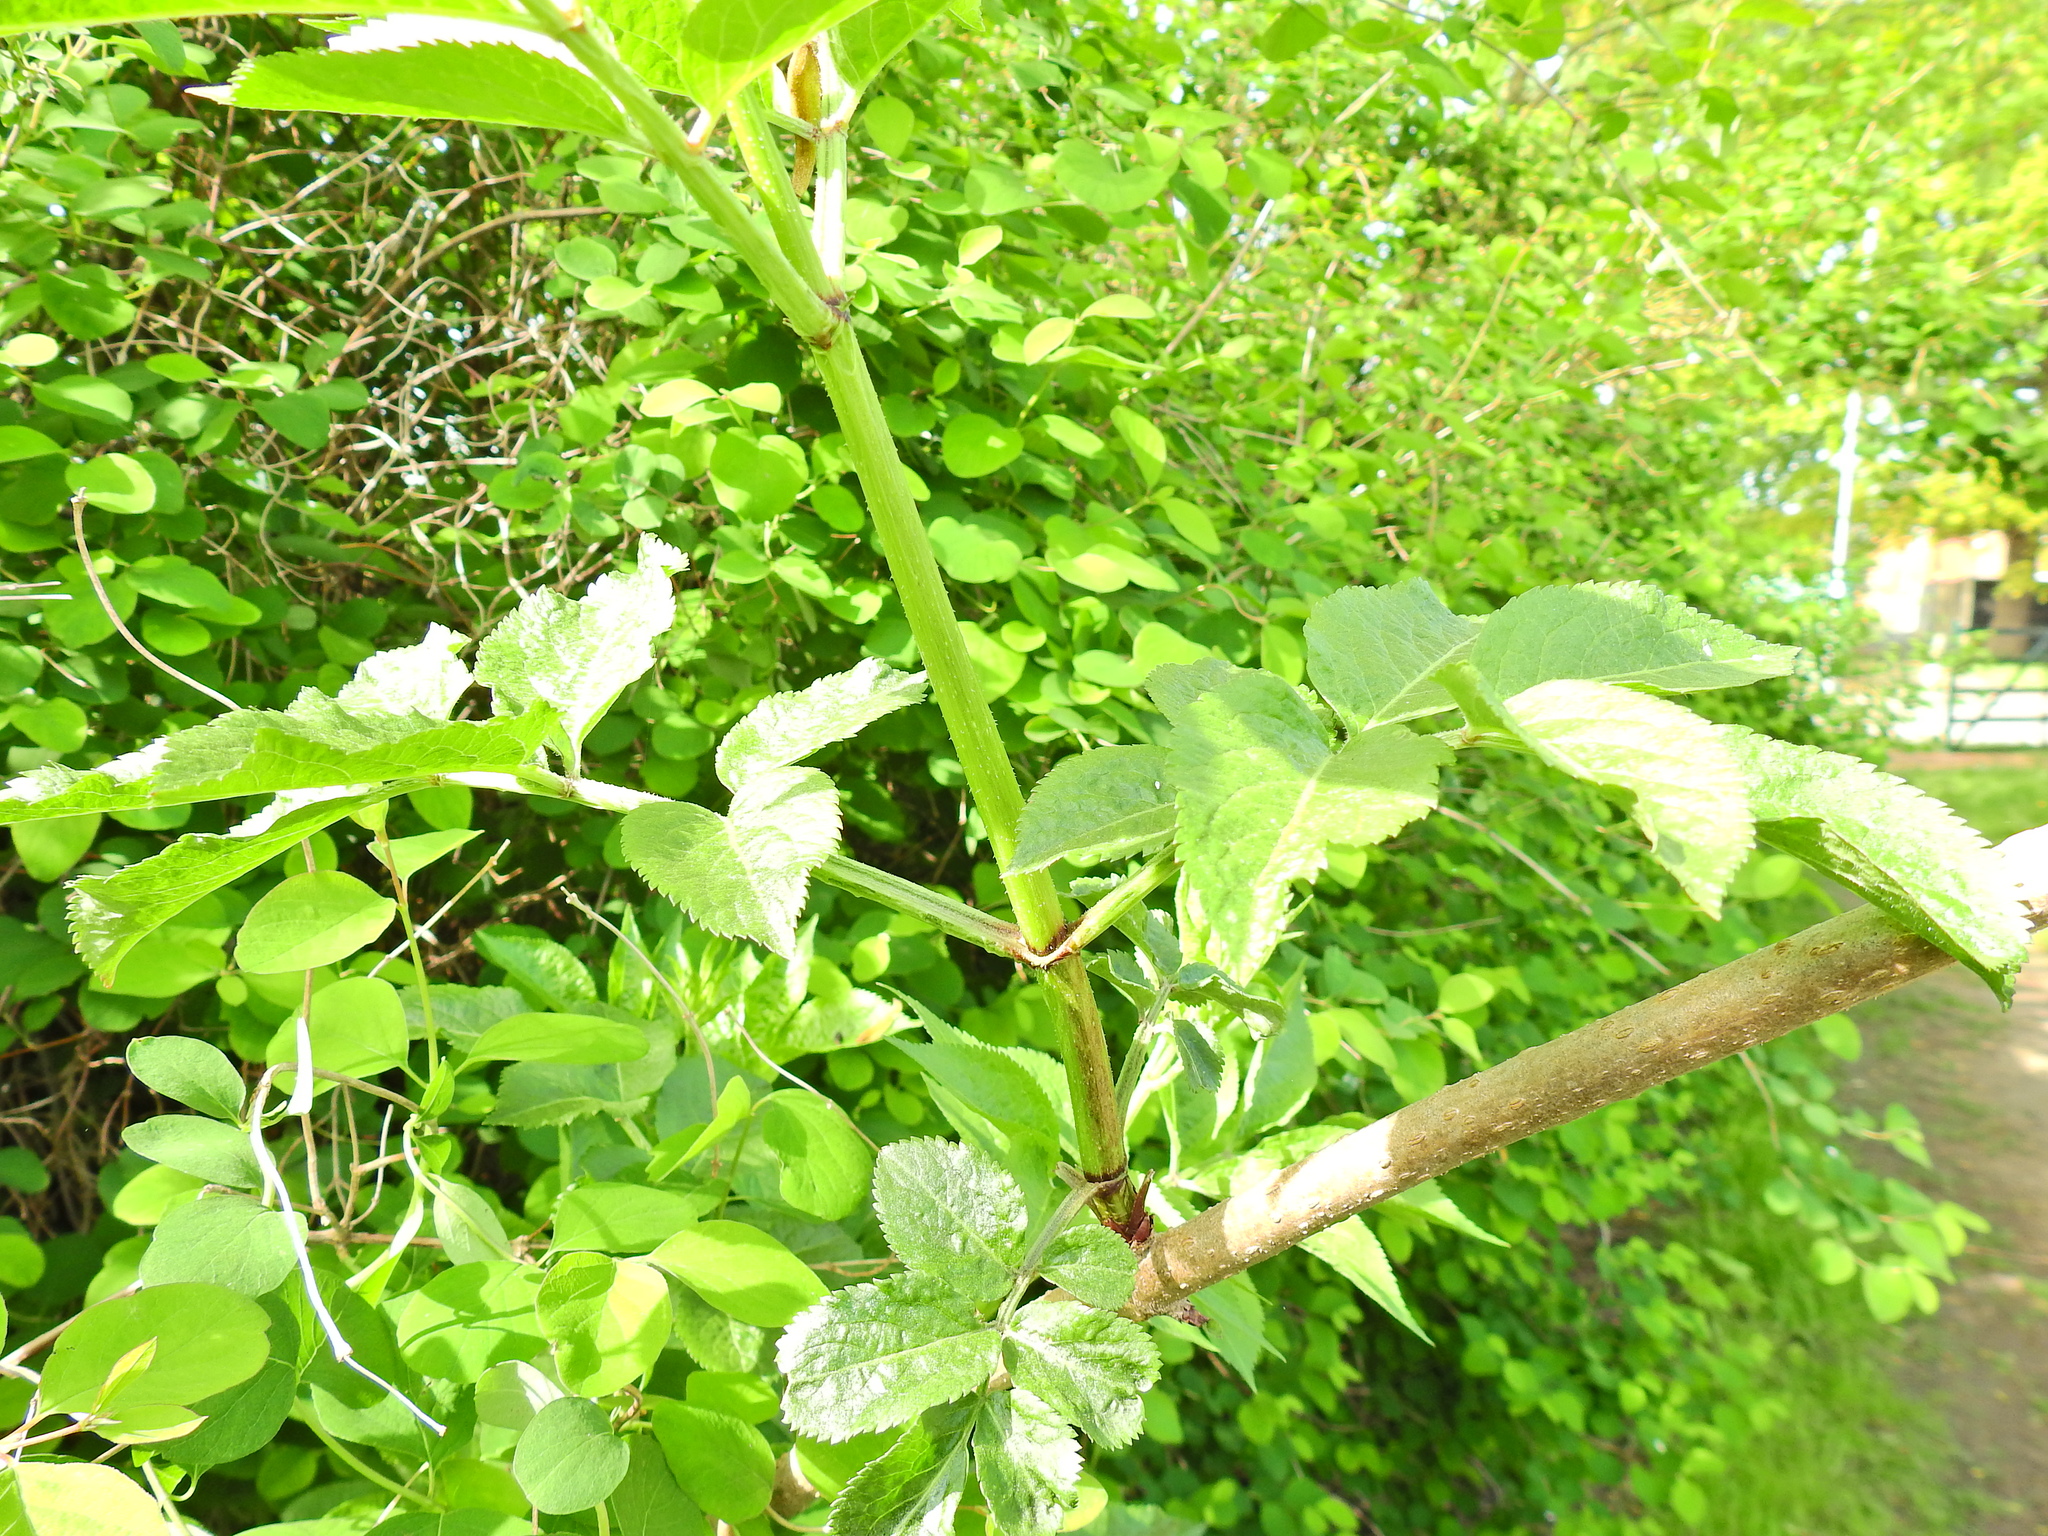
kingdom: Plantae
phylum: Tracheophyta
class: Magnoliopsida
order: Dipsacales
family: Viburnaceae
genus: Sambucus
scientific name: Sambucus nigra
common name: Elder
